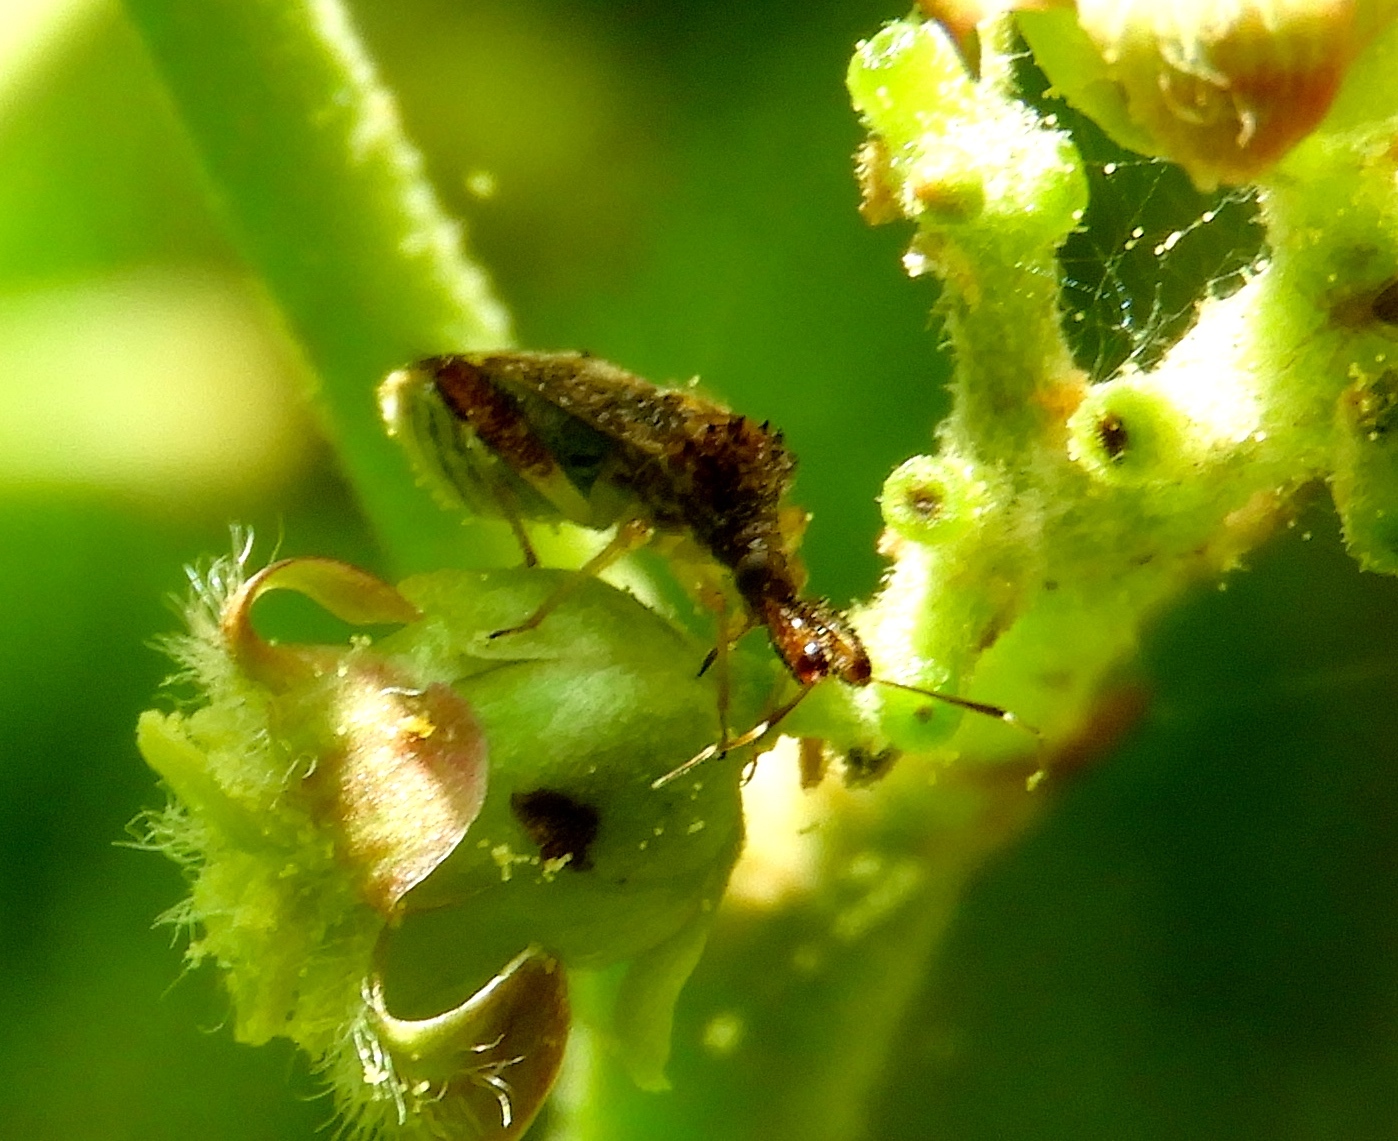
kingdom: Animalia
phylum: Arthropoda
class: Insecta
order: Hemiptera
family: Miridae
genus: Neurocolpus
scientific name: Neurocolpus
